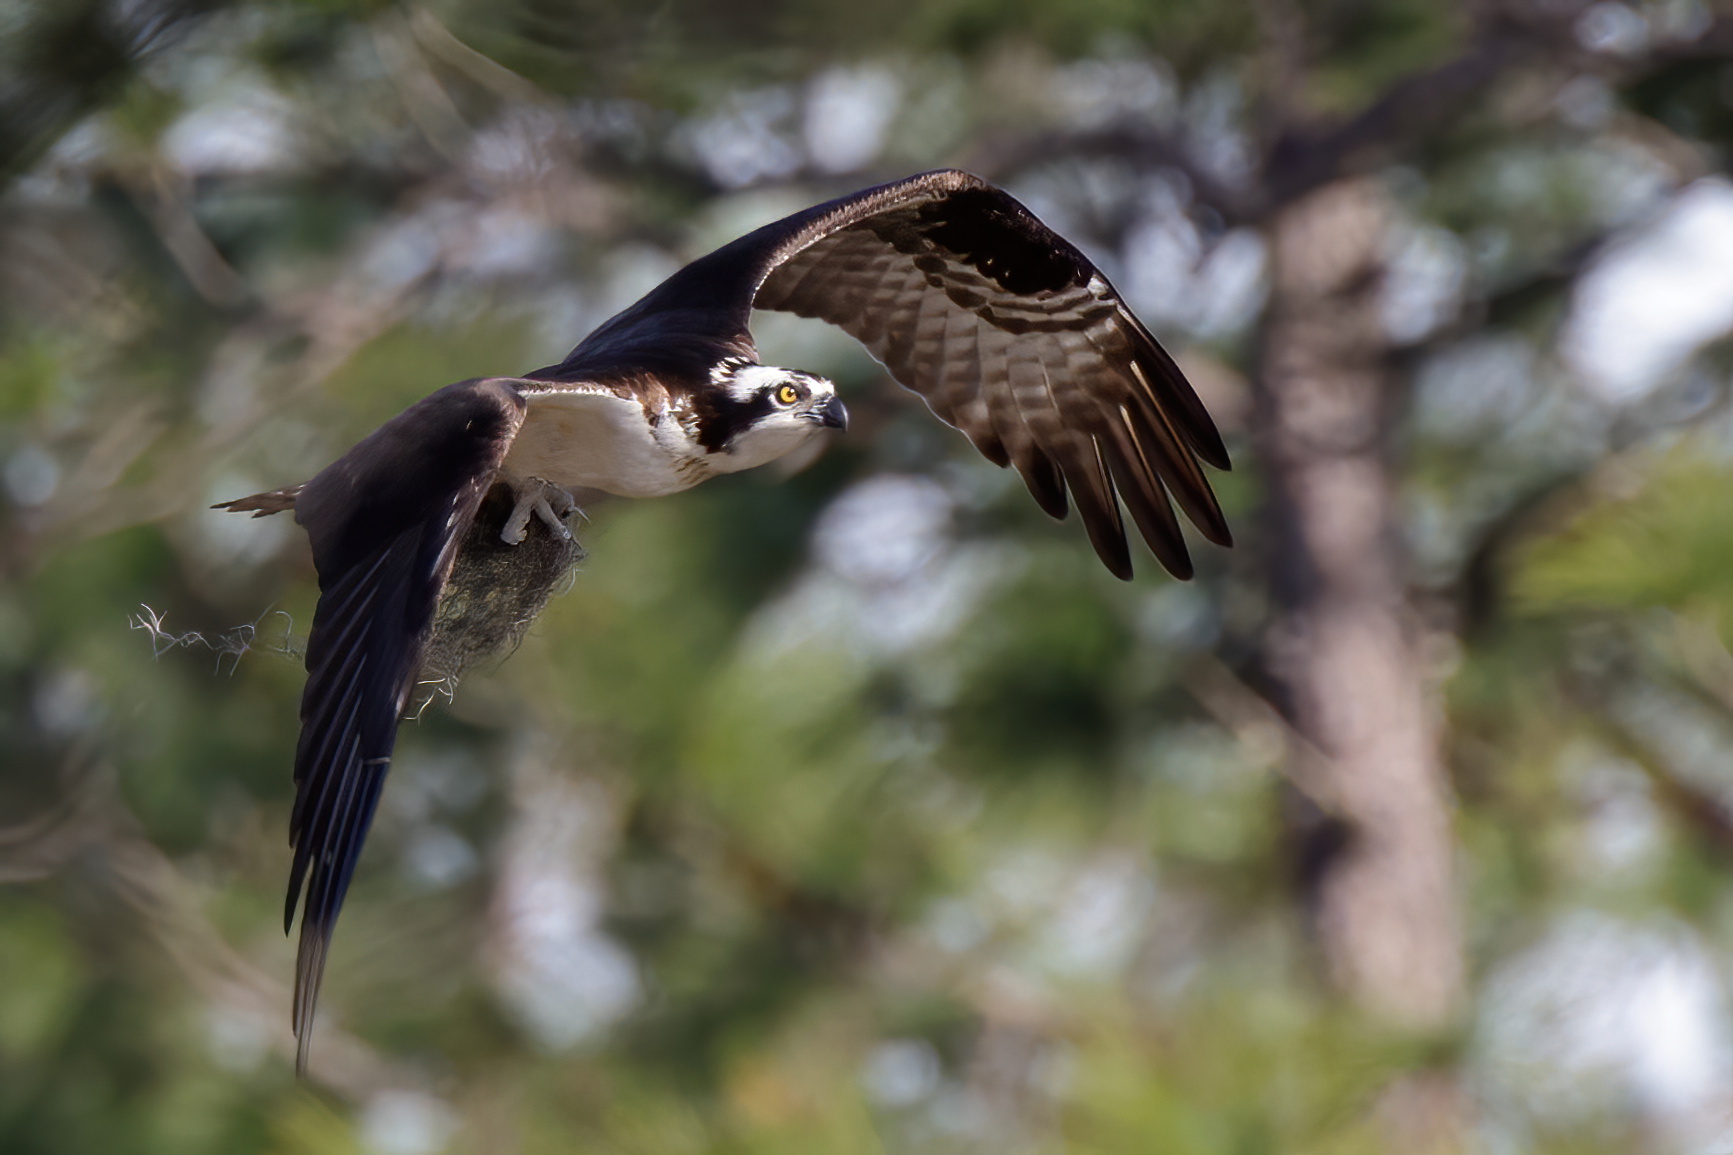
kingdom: Animalia
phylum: Chordata
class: Aves
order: Accipitriformes
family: Pandionidae
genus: Pandion
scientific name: Pandion haliaetus
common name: Osprey
